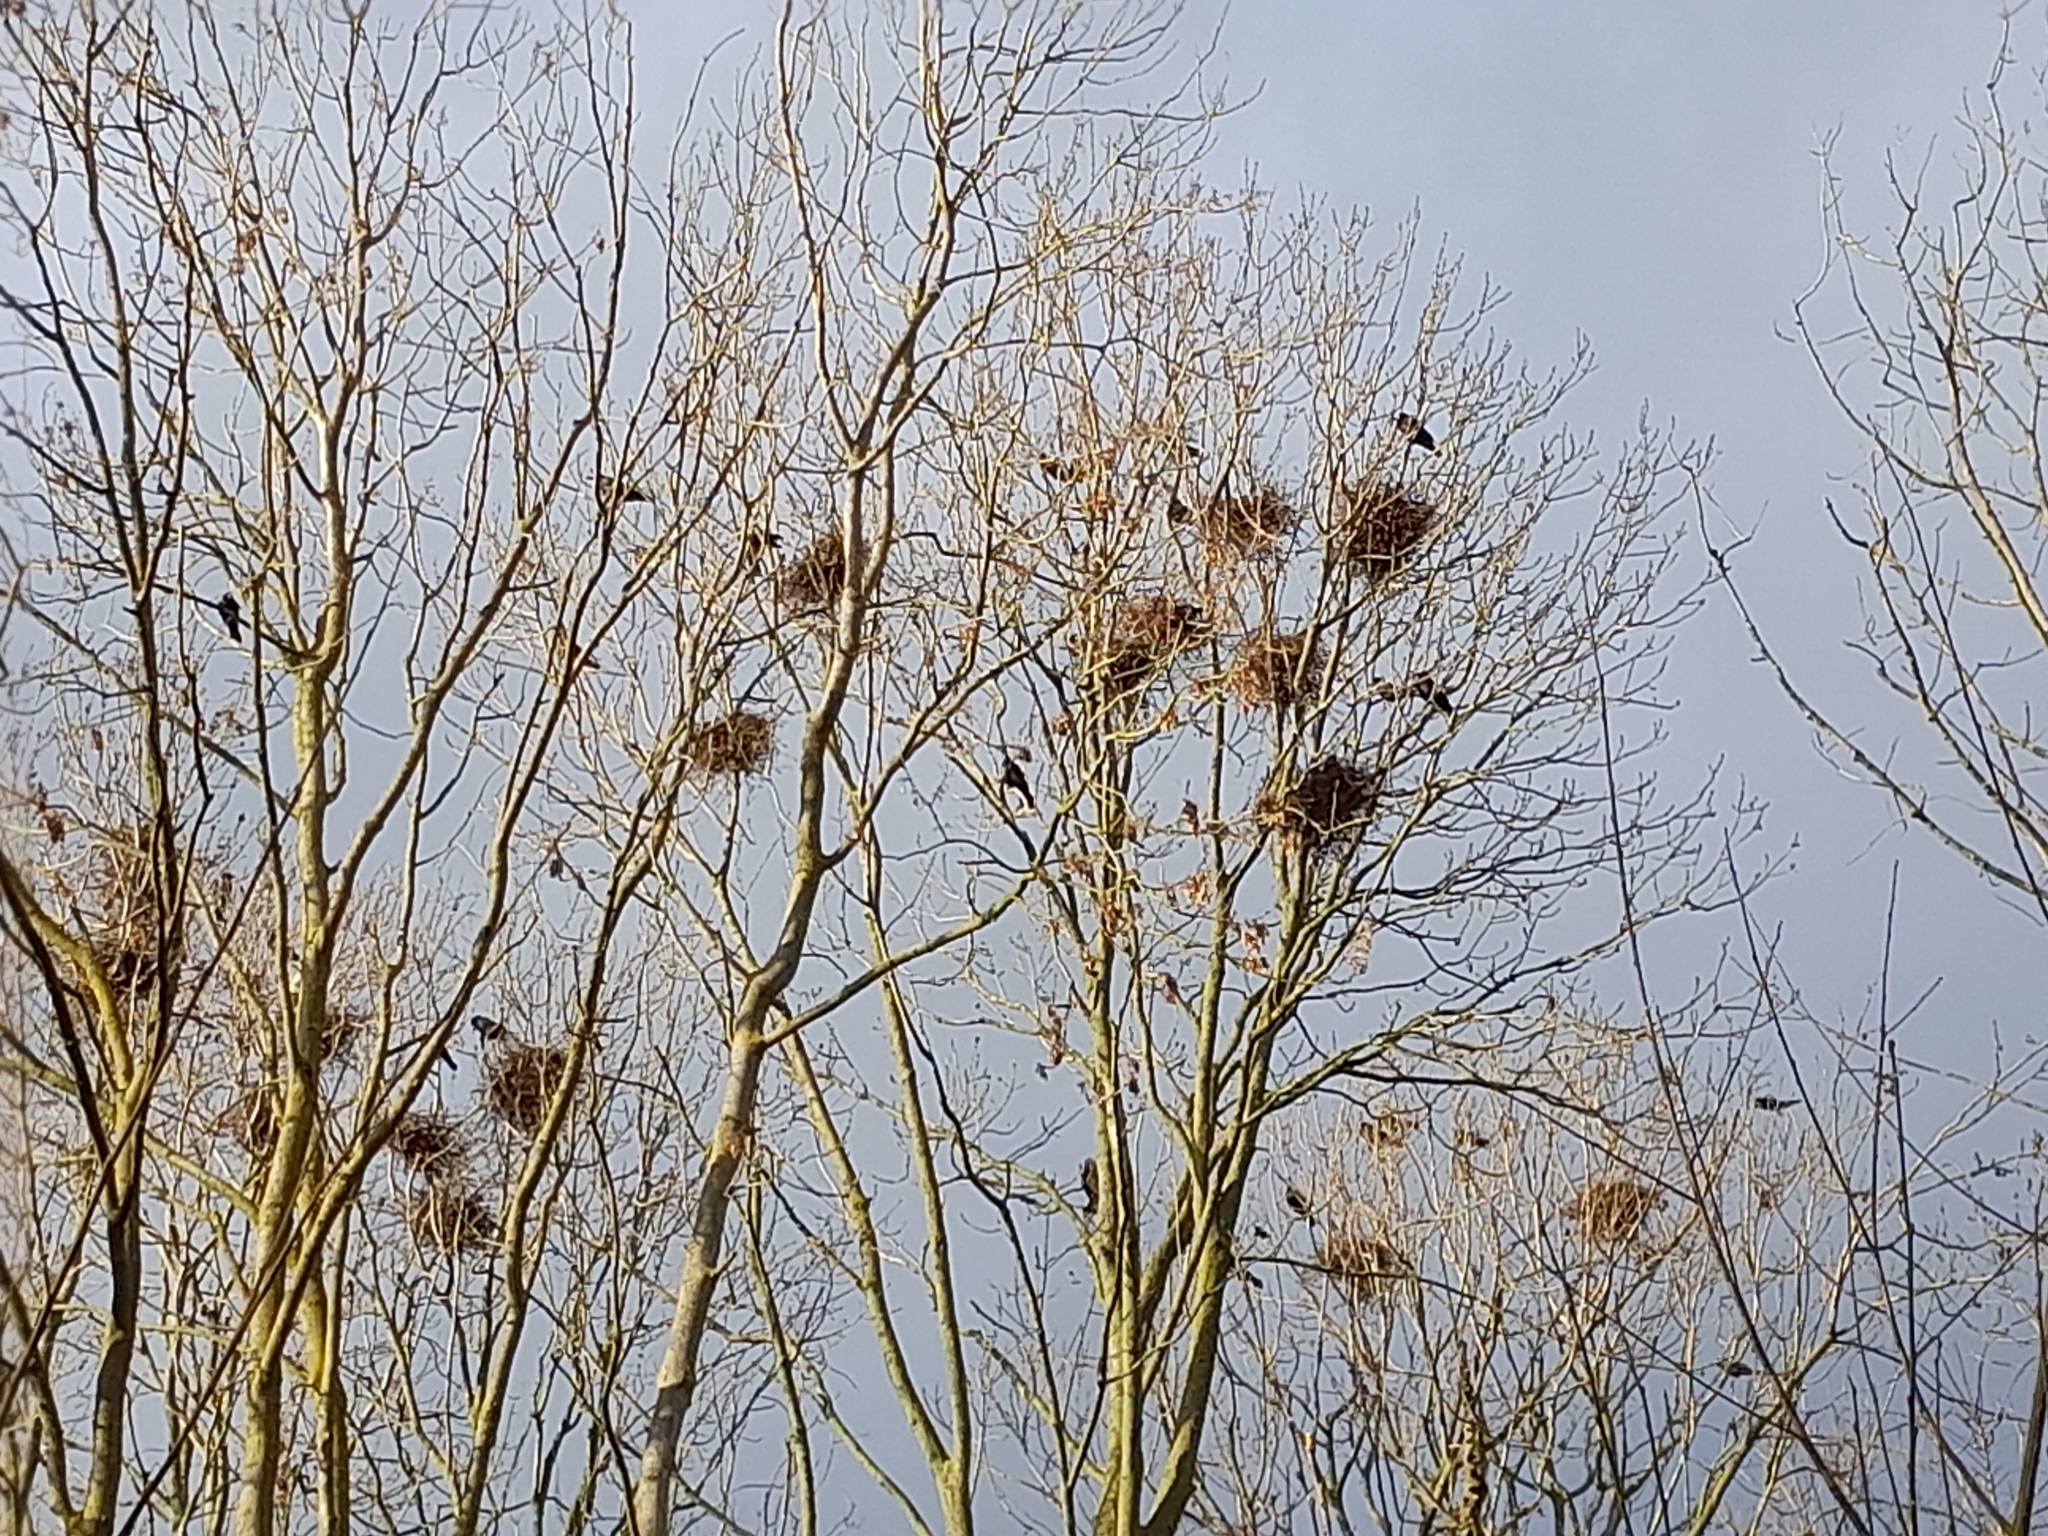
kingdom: Animalia
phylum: Chordata
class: Aves
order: Passeriformes
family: Corvidae
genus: Corvus
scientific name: Corvus frugilegus
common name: Rook
